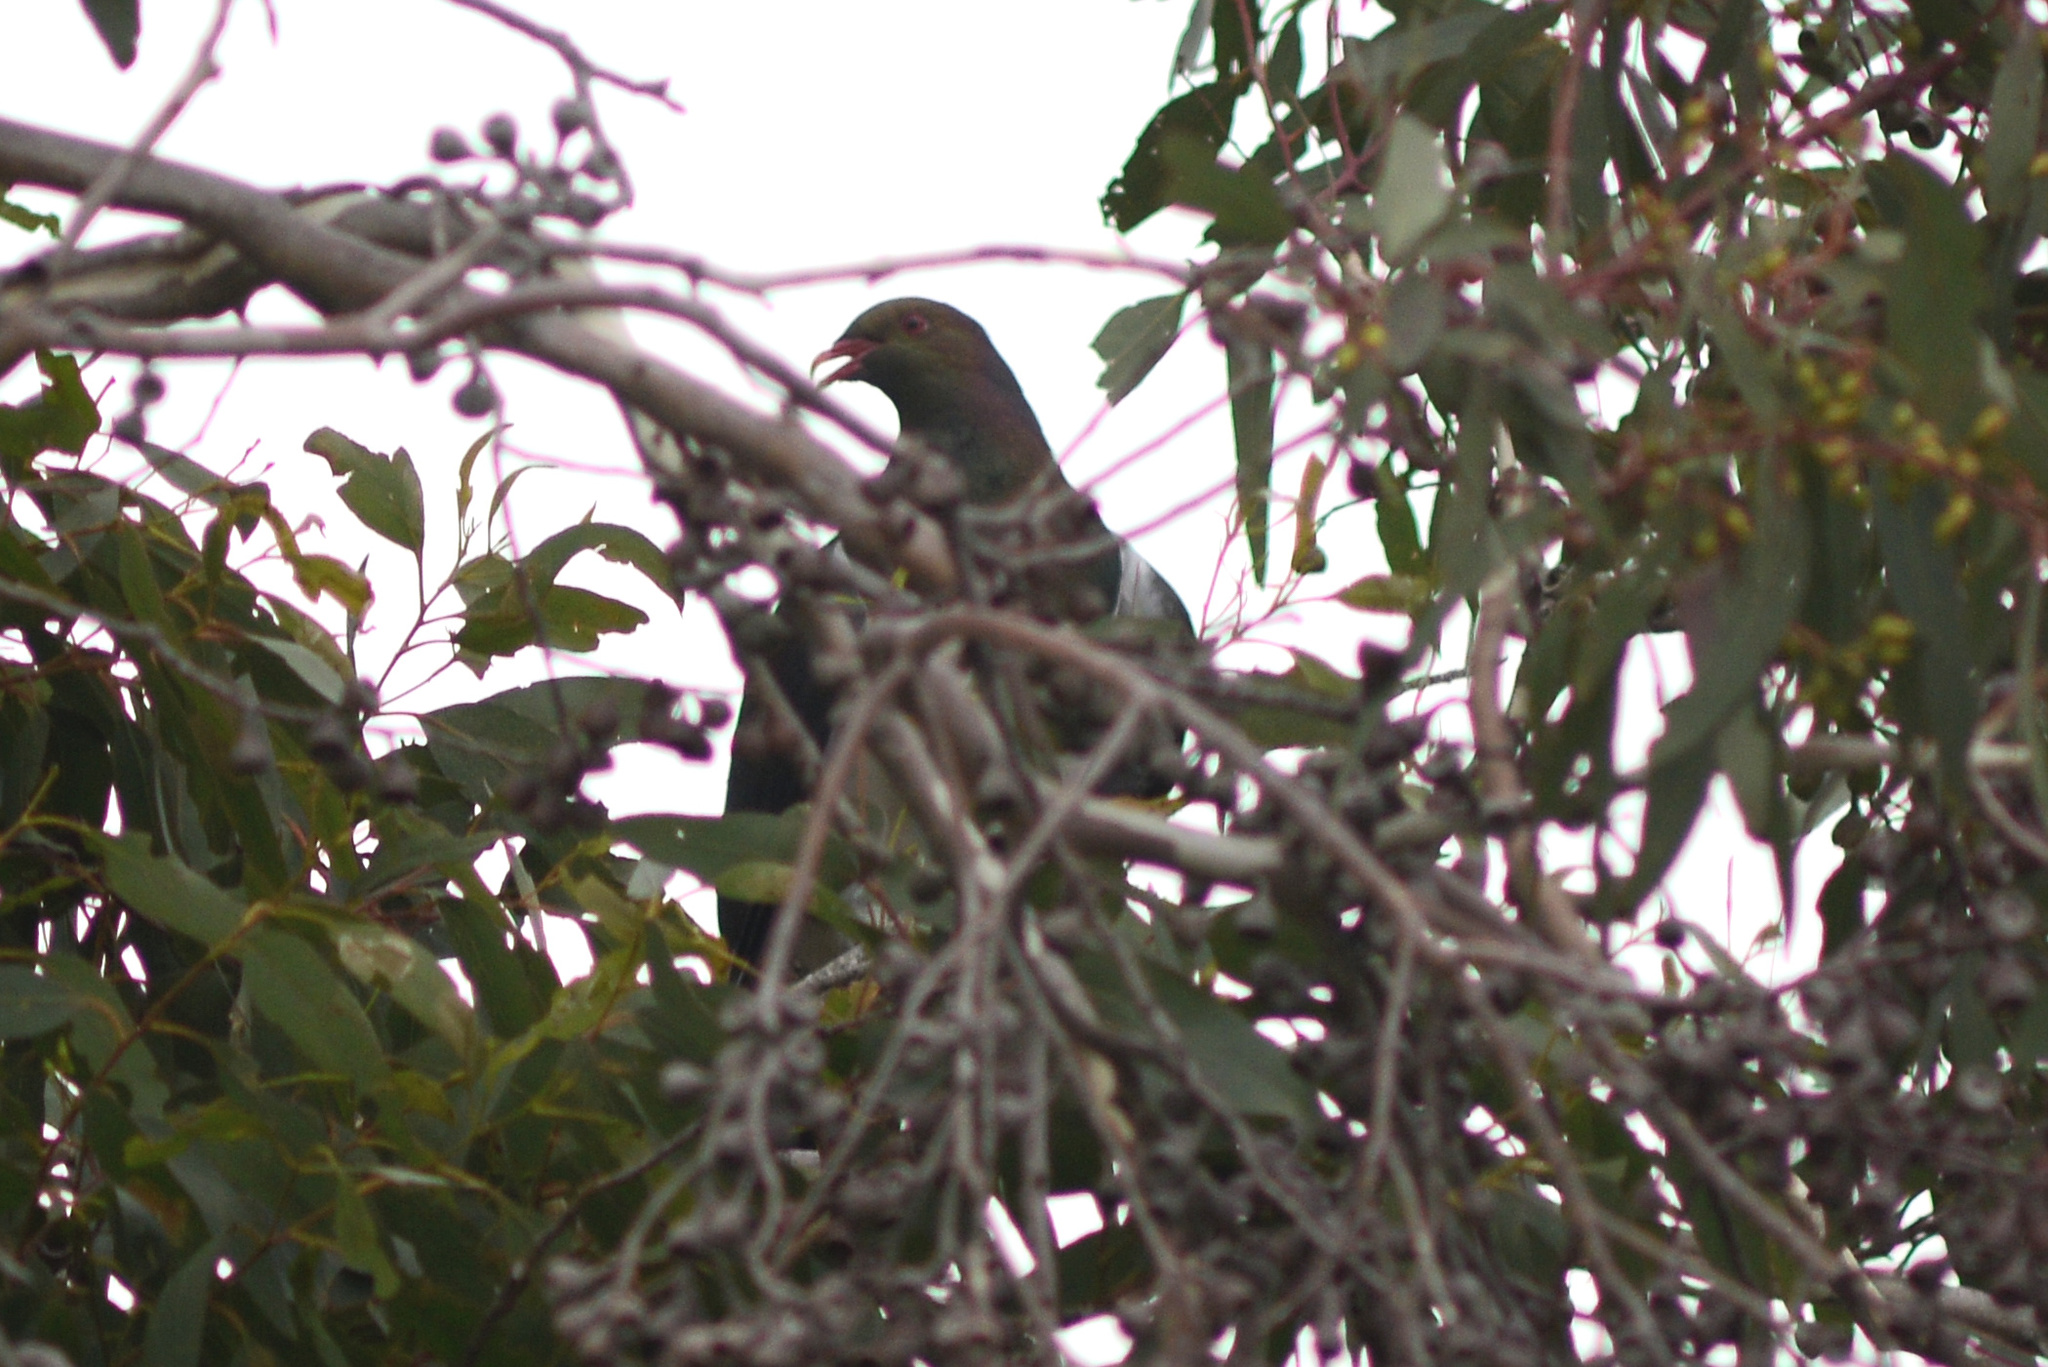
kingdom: Animalia
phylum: Chordata
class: Aves
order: Columbiformes
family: Columbidae
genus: Hemiphaga
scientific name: Hemiphaga novaeseelandiae
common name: New zealand pigeon
